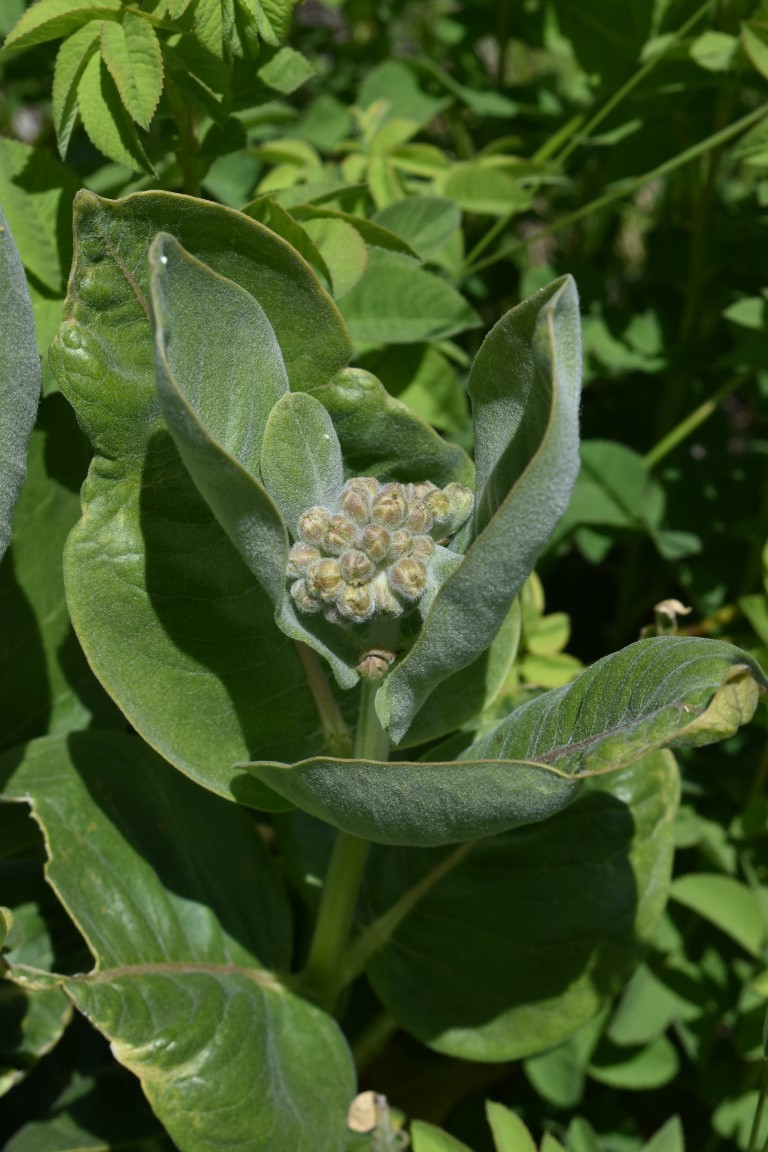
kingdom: Plantae
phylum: Tracheophyta
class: Magnoliopsida
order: Gentianales
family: Apocynaceae
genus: Asclepias
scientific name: Asclepias speciosa
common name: Showy milkweed
